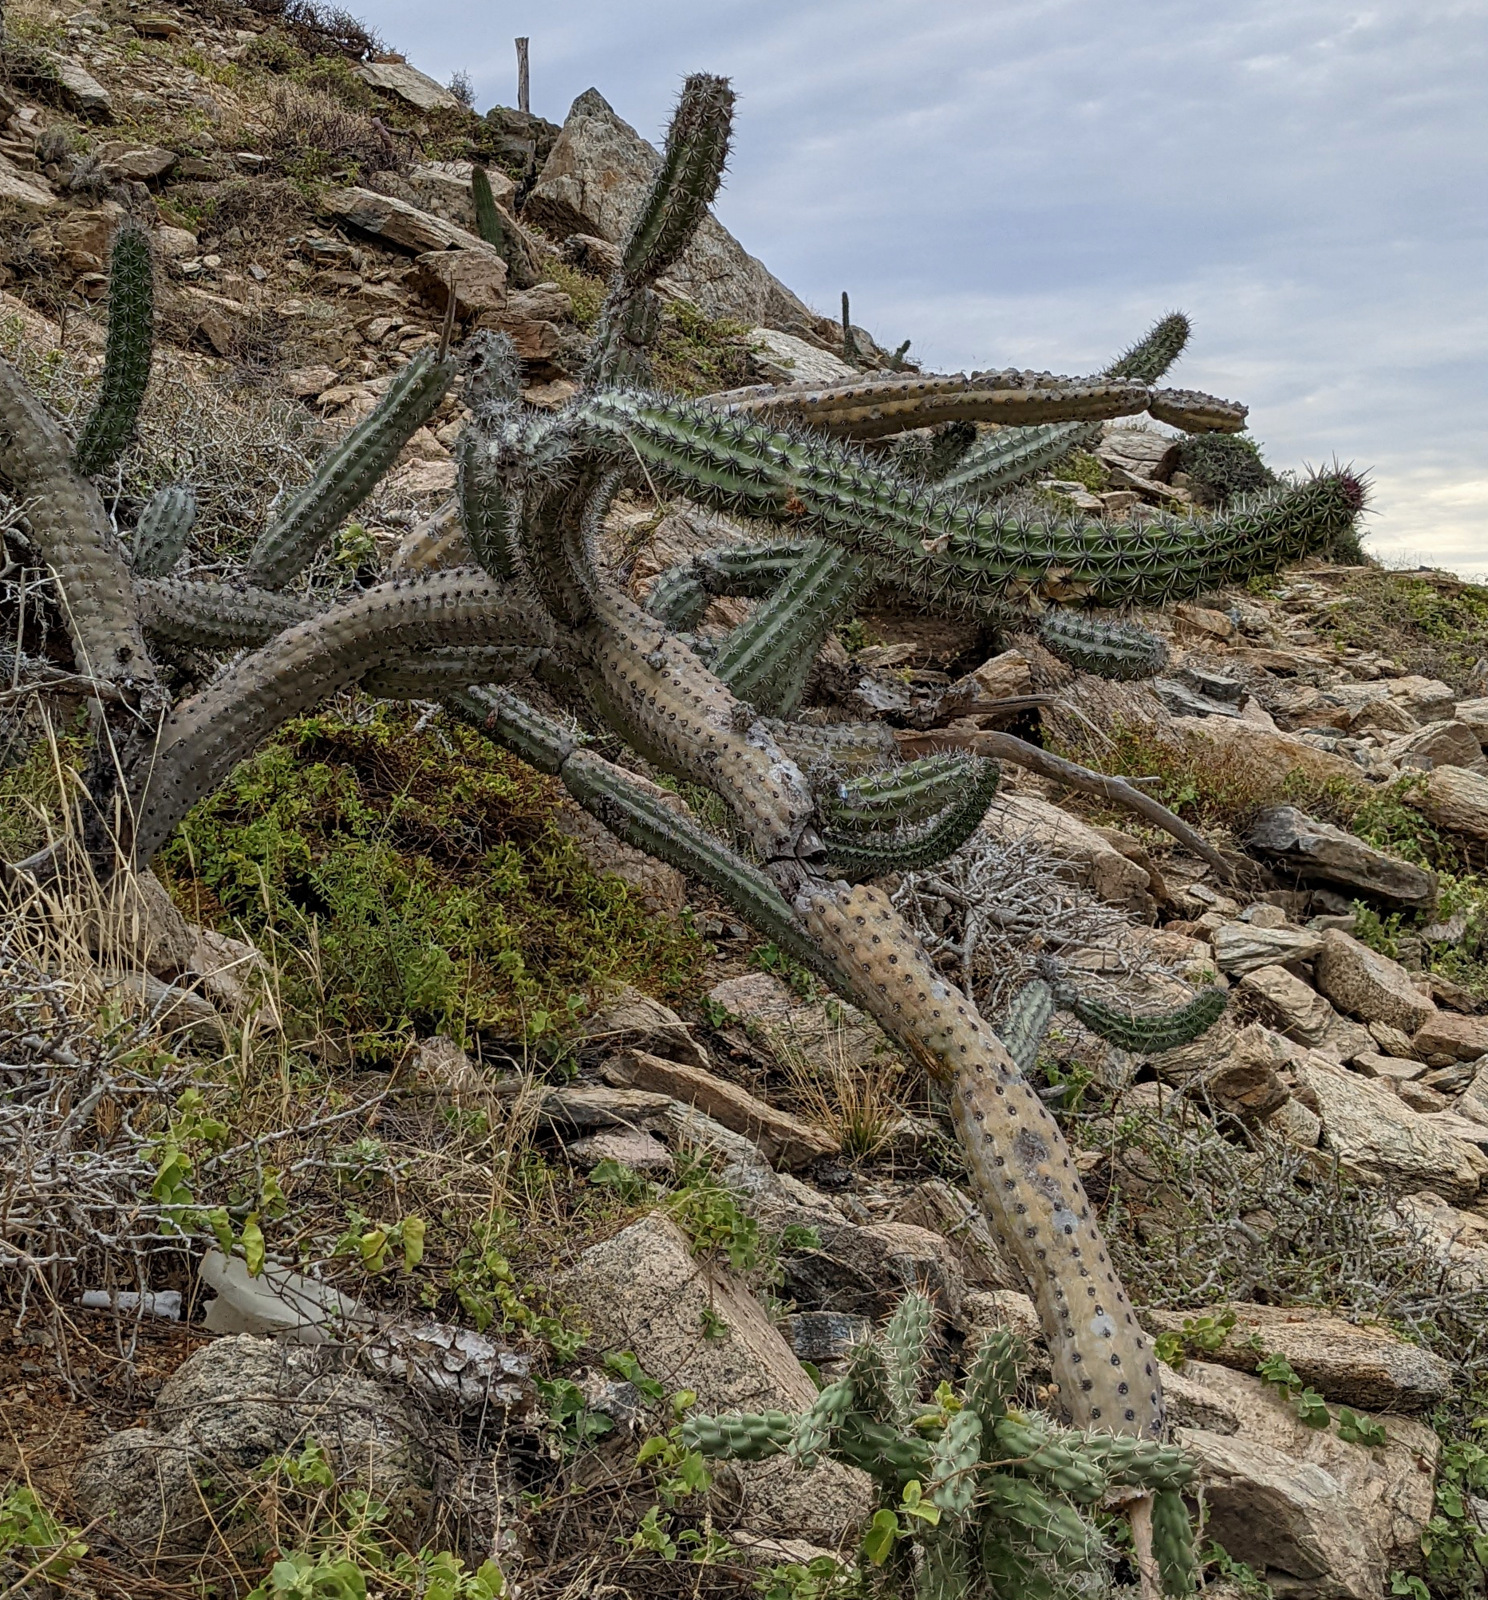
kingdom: Plantae
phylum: Tracheophyta
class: Magnoliopsida
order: Caryophyllales
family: Cactaceae
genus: Stenocereus
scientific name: Stenocereus gummosus
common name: Dagger cactus
